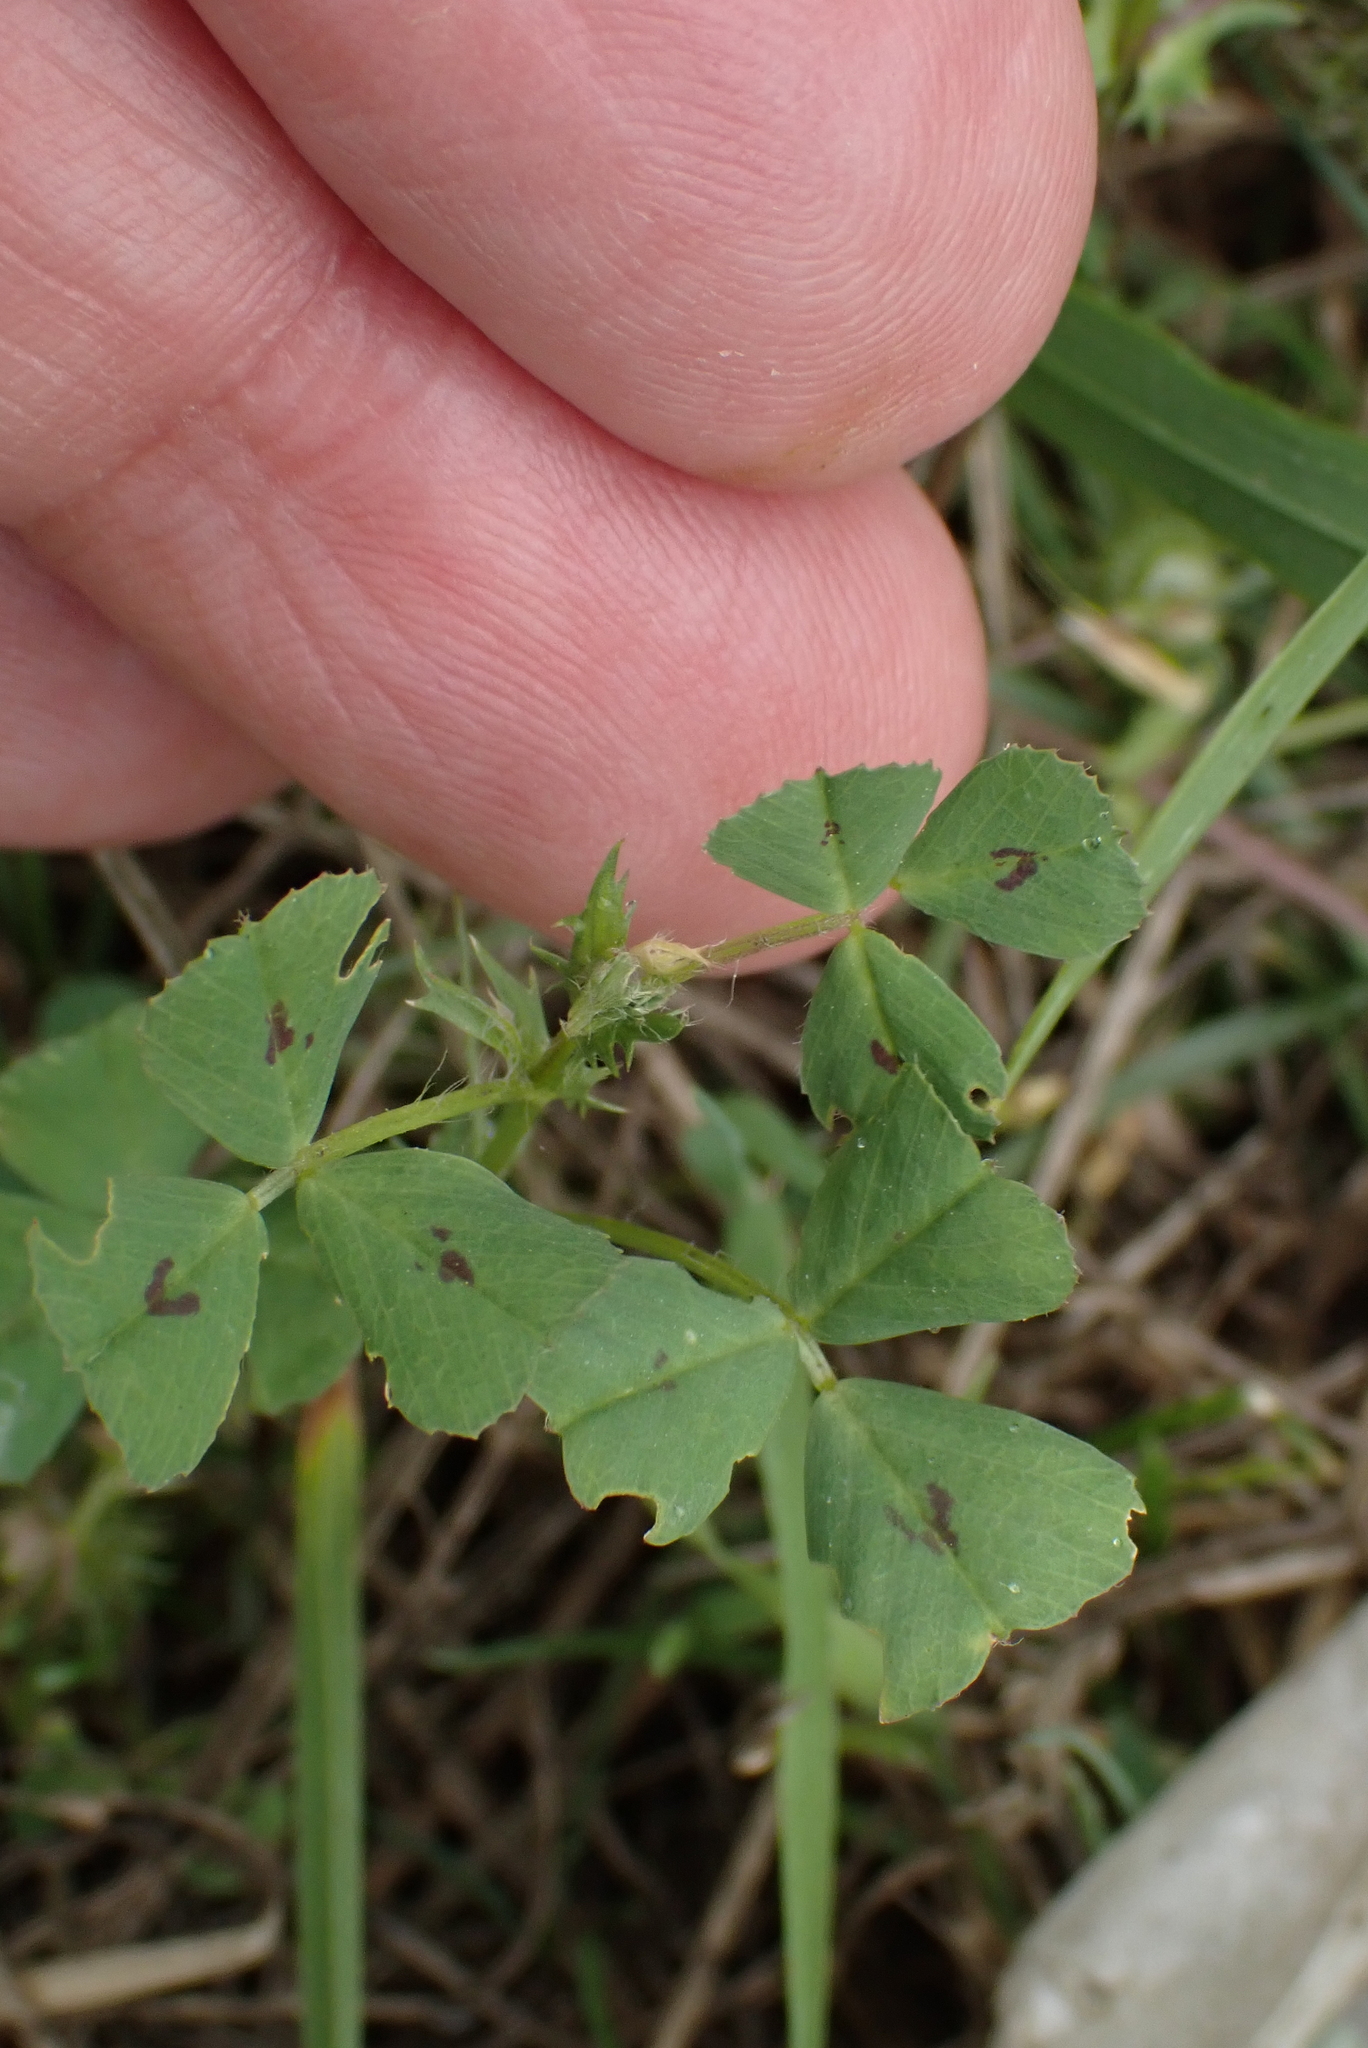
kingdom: Plantae
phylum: Tracheophyta
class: Magnoliopsida
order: Fabales
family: Fabaceae
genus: Medicago
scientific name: Medicago arabica
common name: Spotted medick
